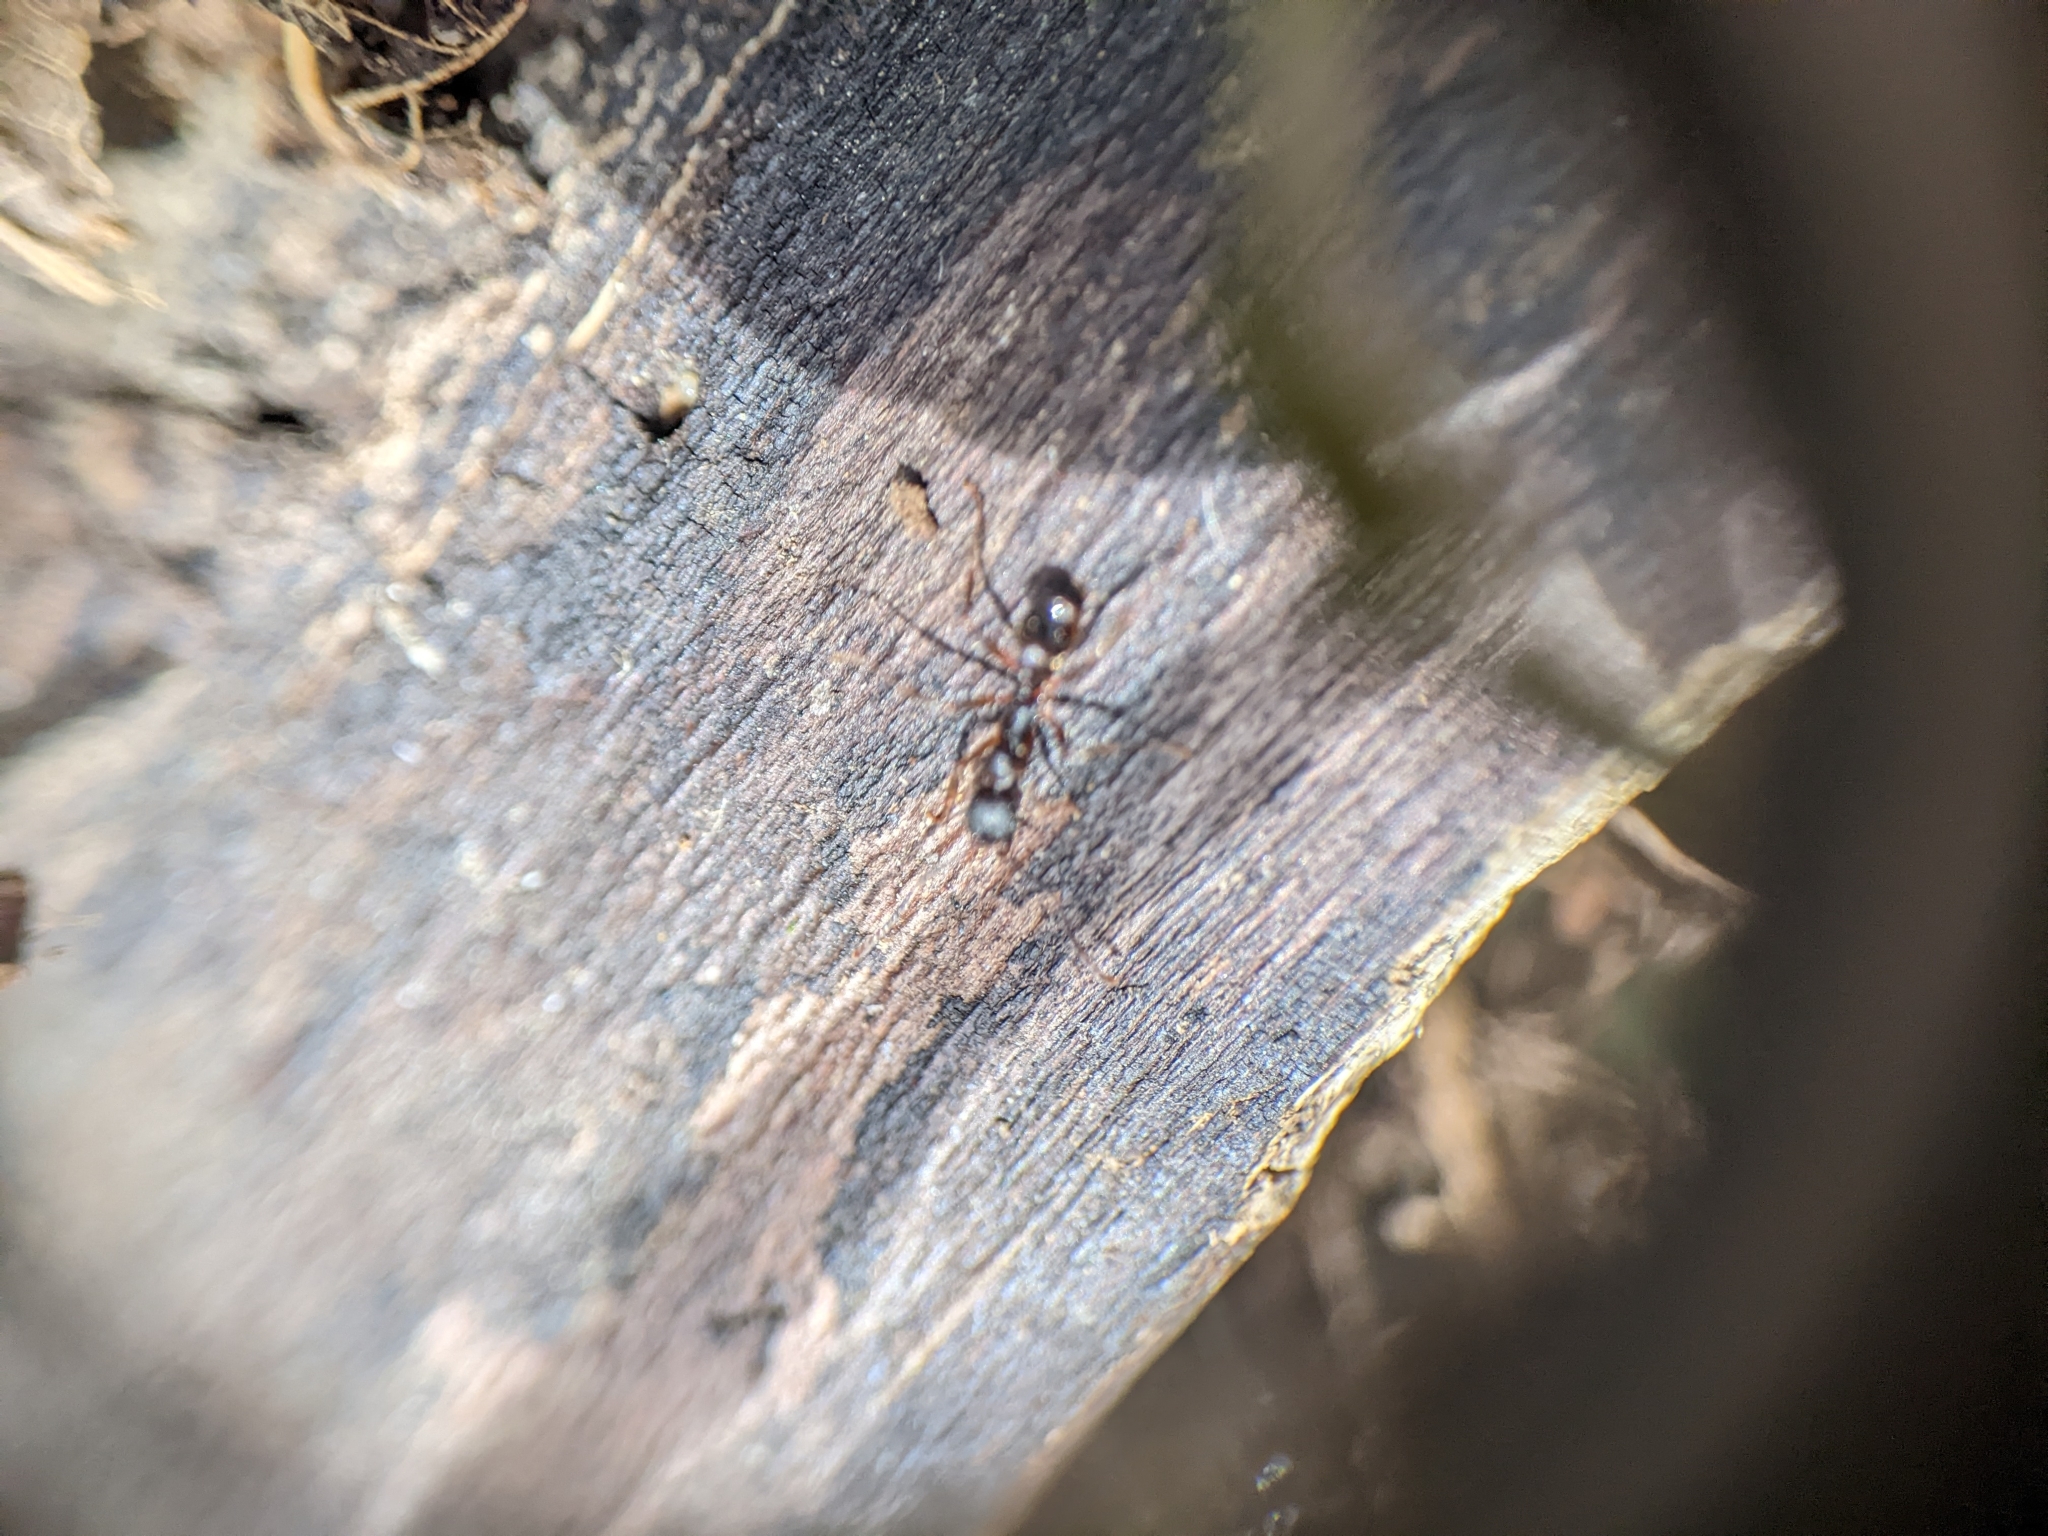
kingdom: Animalia
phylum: Arthropoda
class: Insecta
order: Hymenoptera
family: Formicidae
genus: Aphaenogaster
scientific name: Aphaenogaster picea
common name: Pitch-black collared ant
